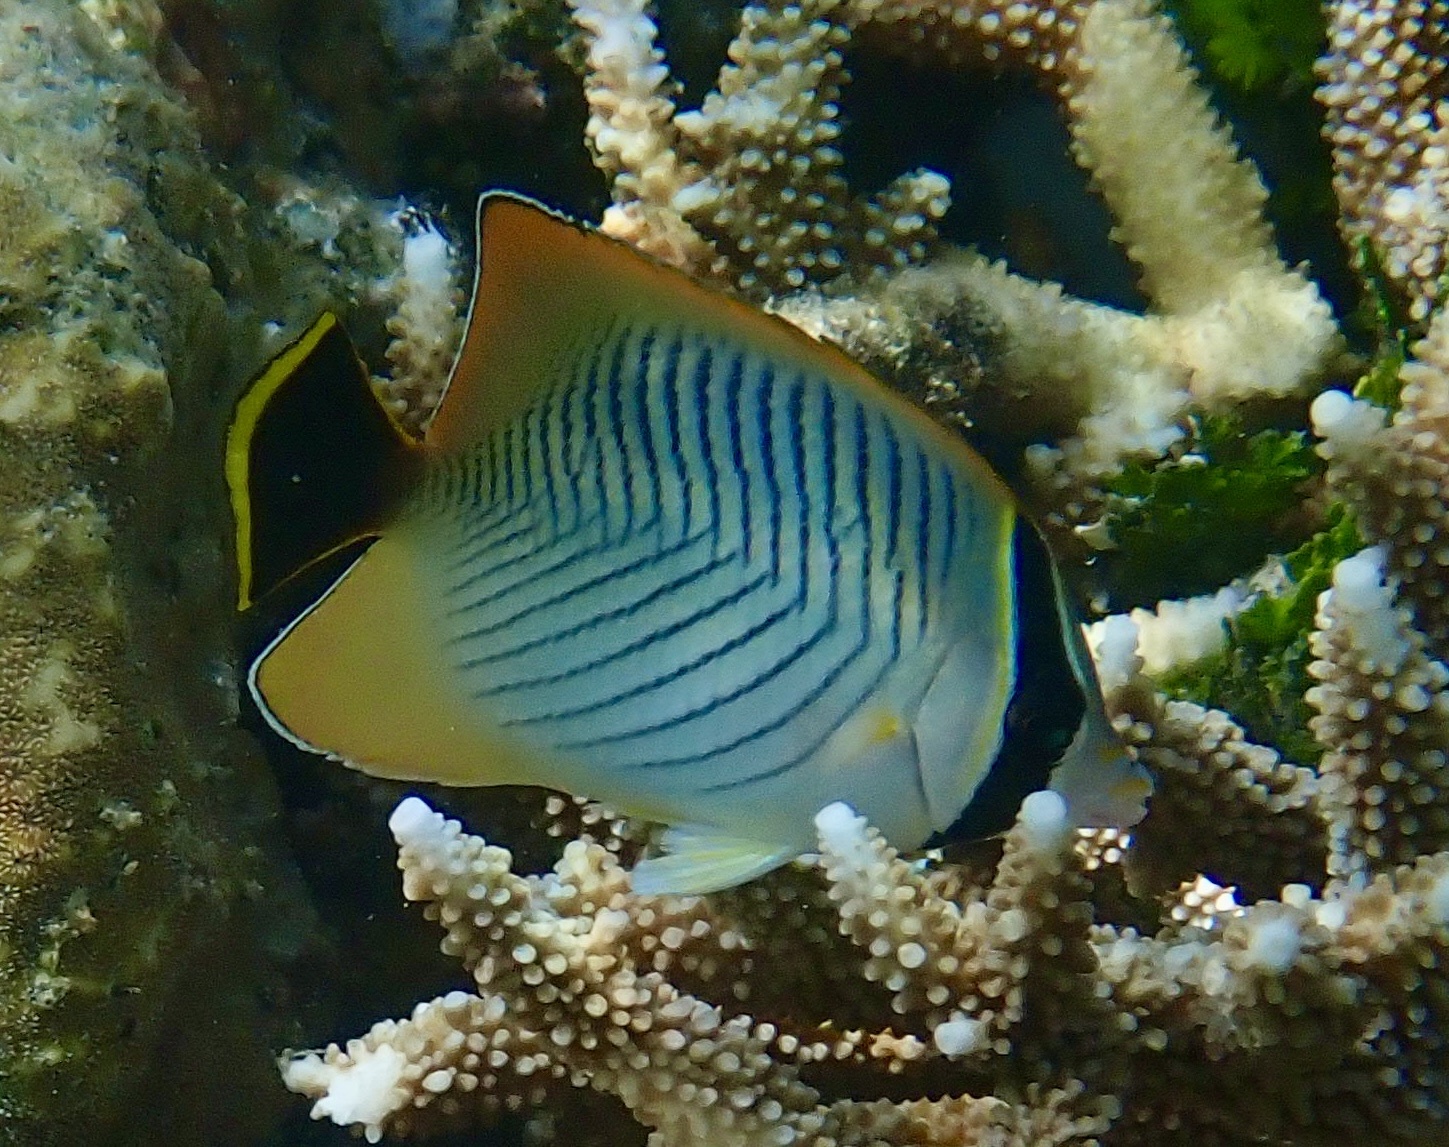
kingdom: Animalia
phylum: Chordata
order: Perciformes
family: Chaetodontidae
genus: Chaetodon
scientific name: Chaetodon trifascialis
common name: Chevroned butterflyfish
